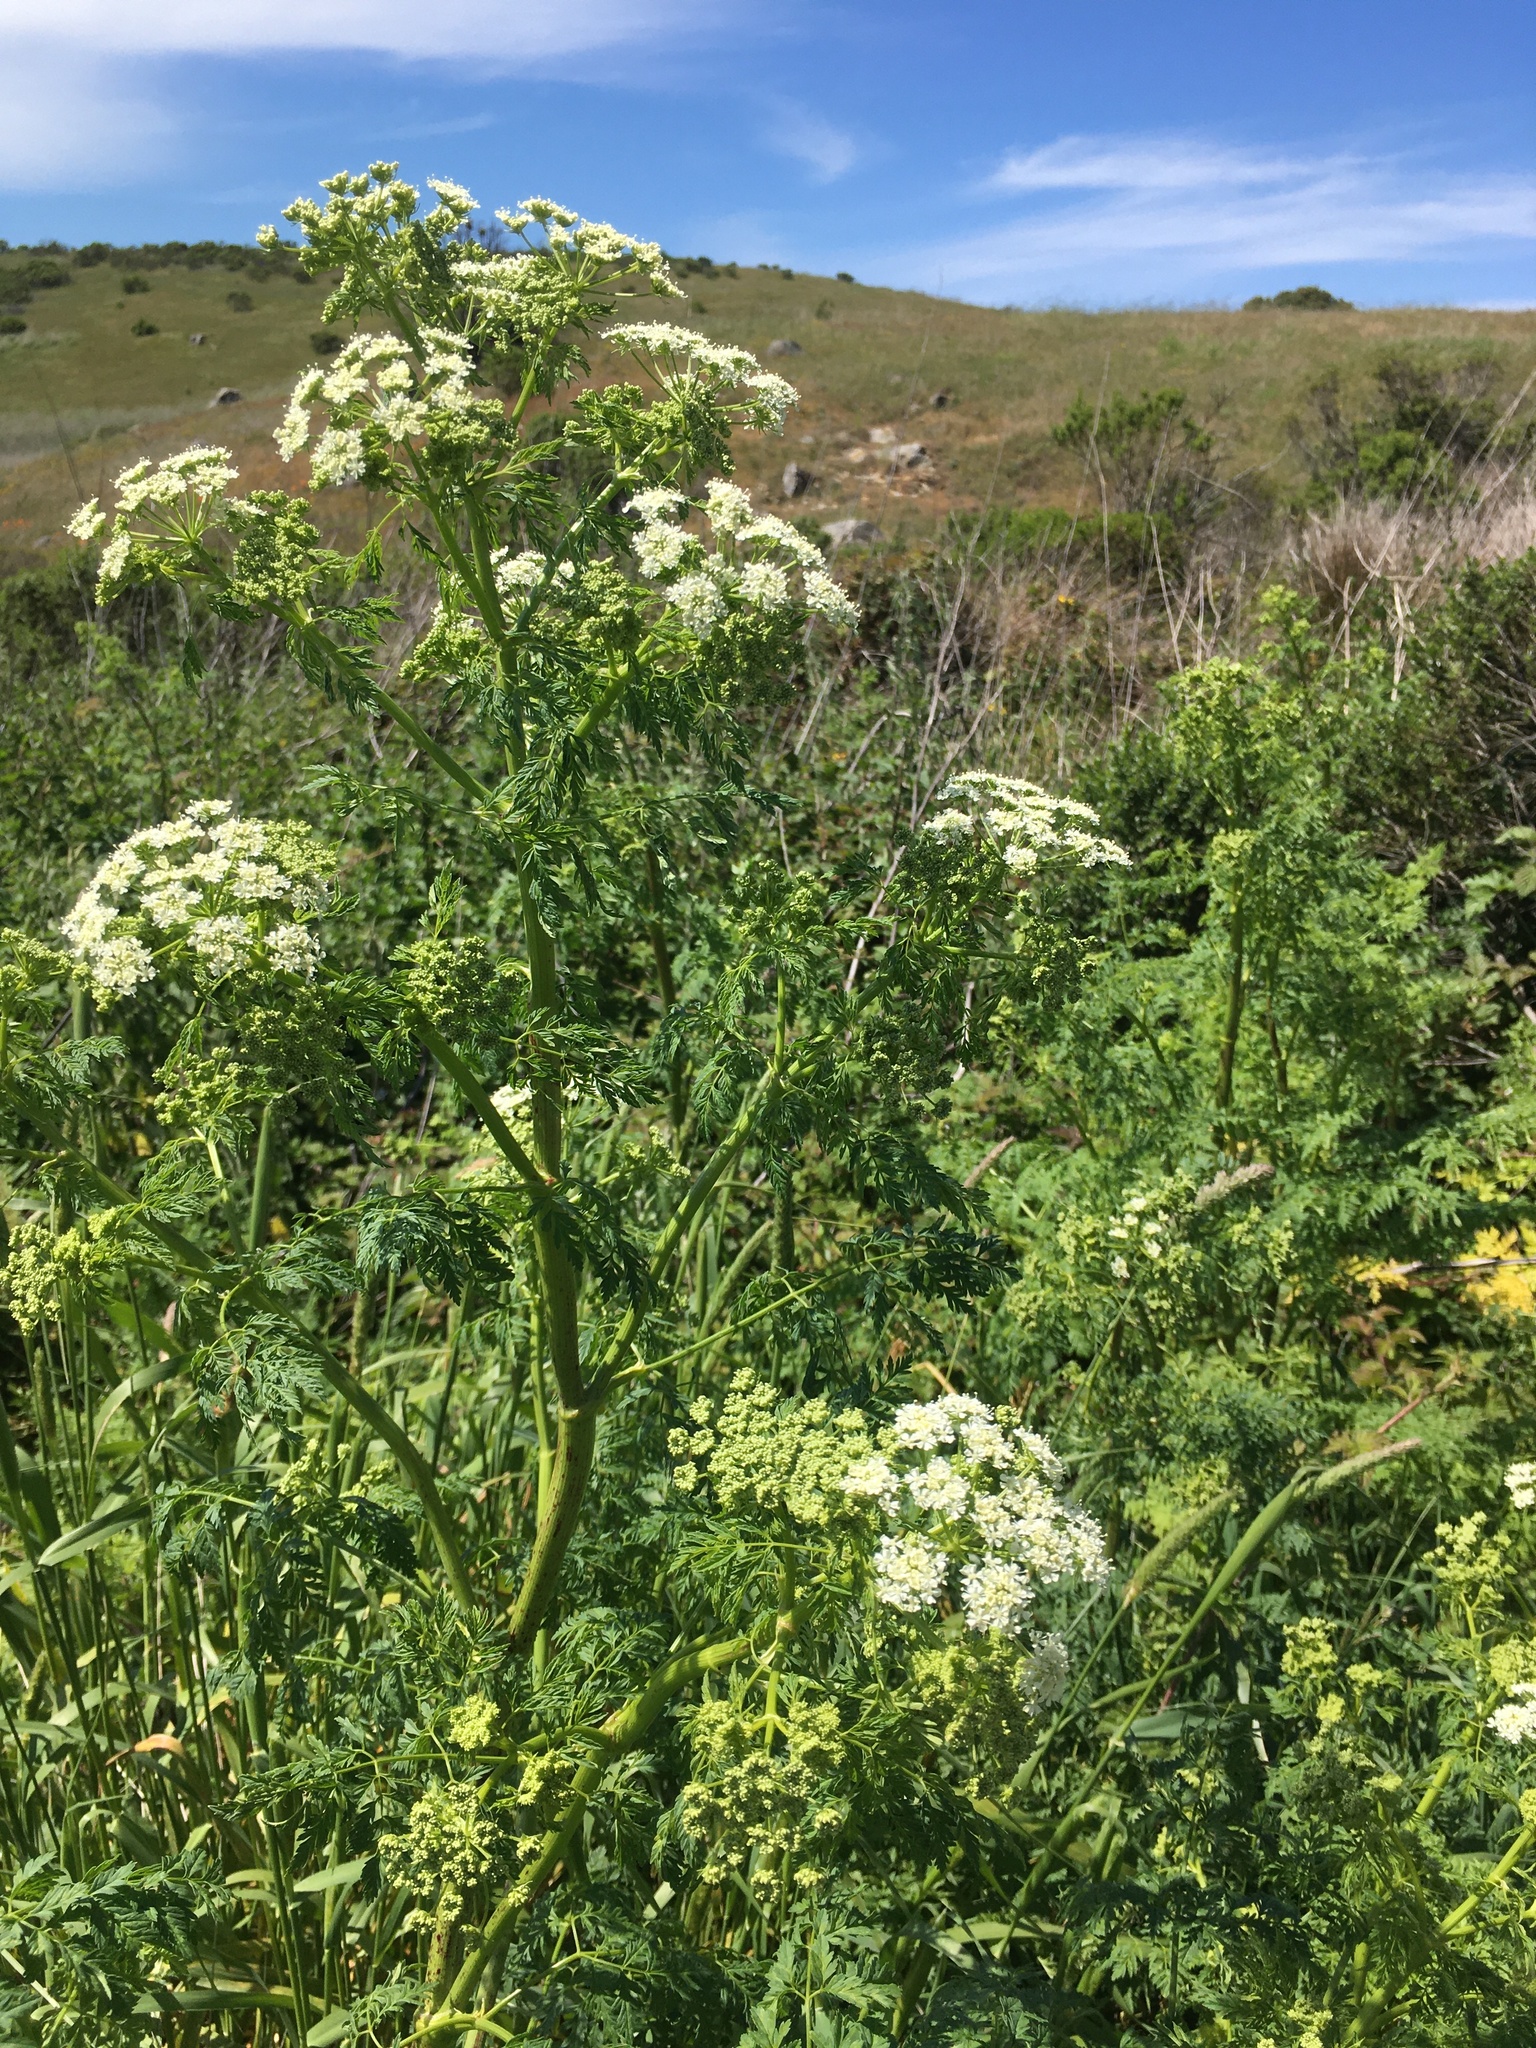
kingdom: Plantae
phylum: Tracheophyta
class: Magnoliopsida
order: Apiales
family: Apiaceae
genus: Conium
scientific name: Conium maculatum
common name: Hemlock
